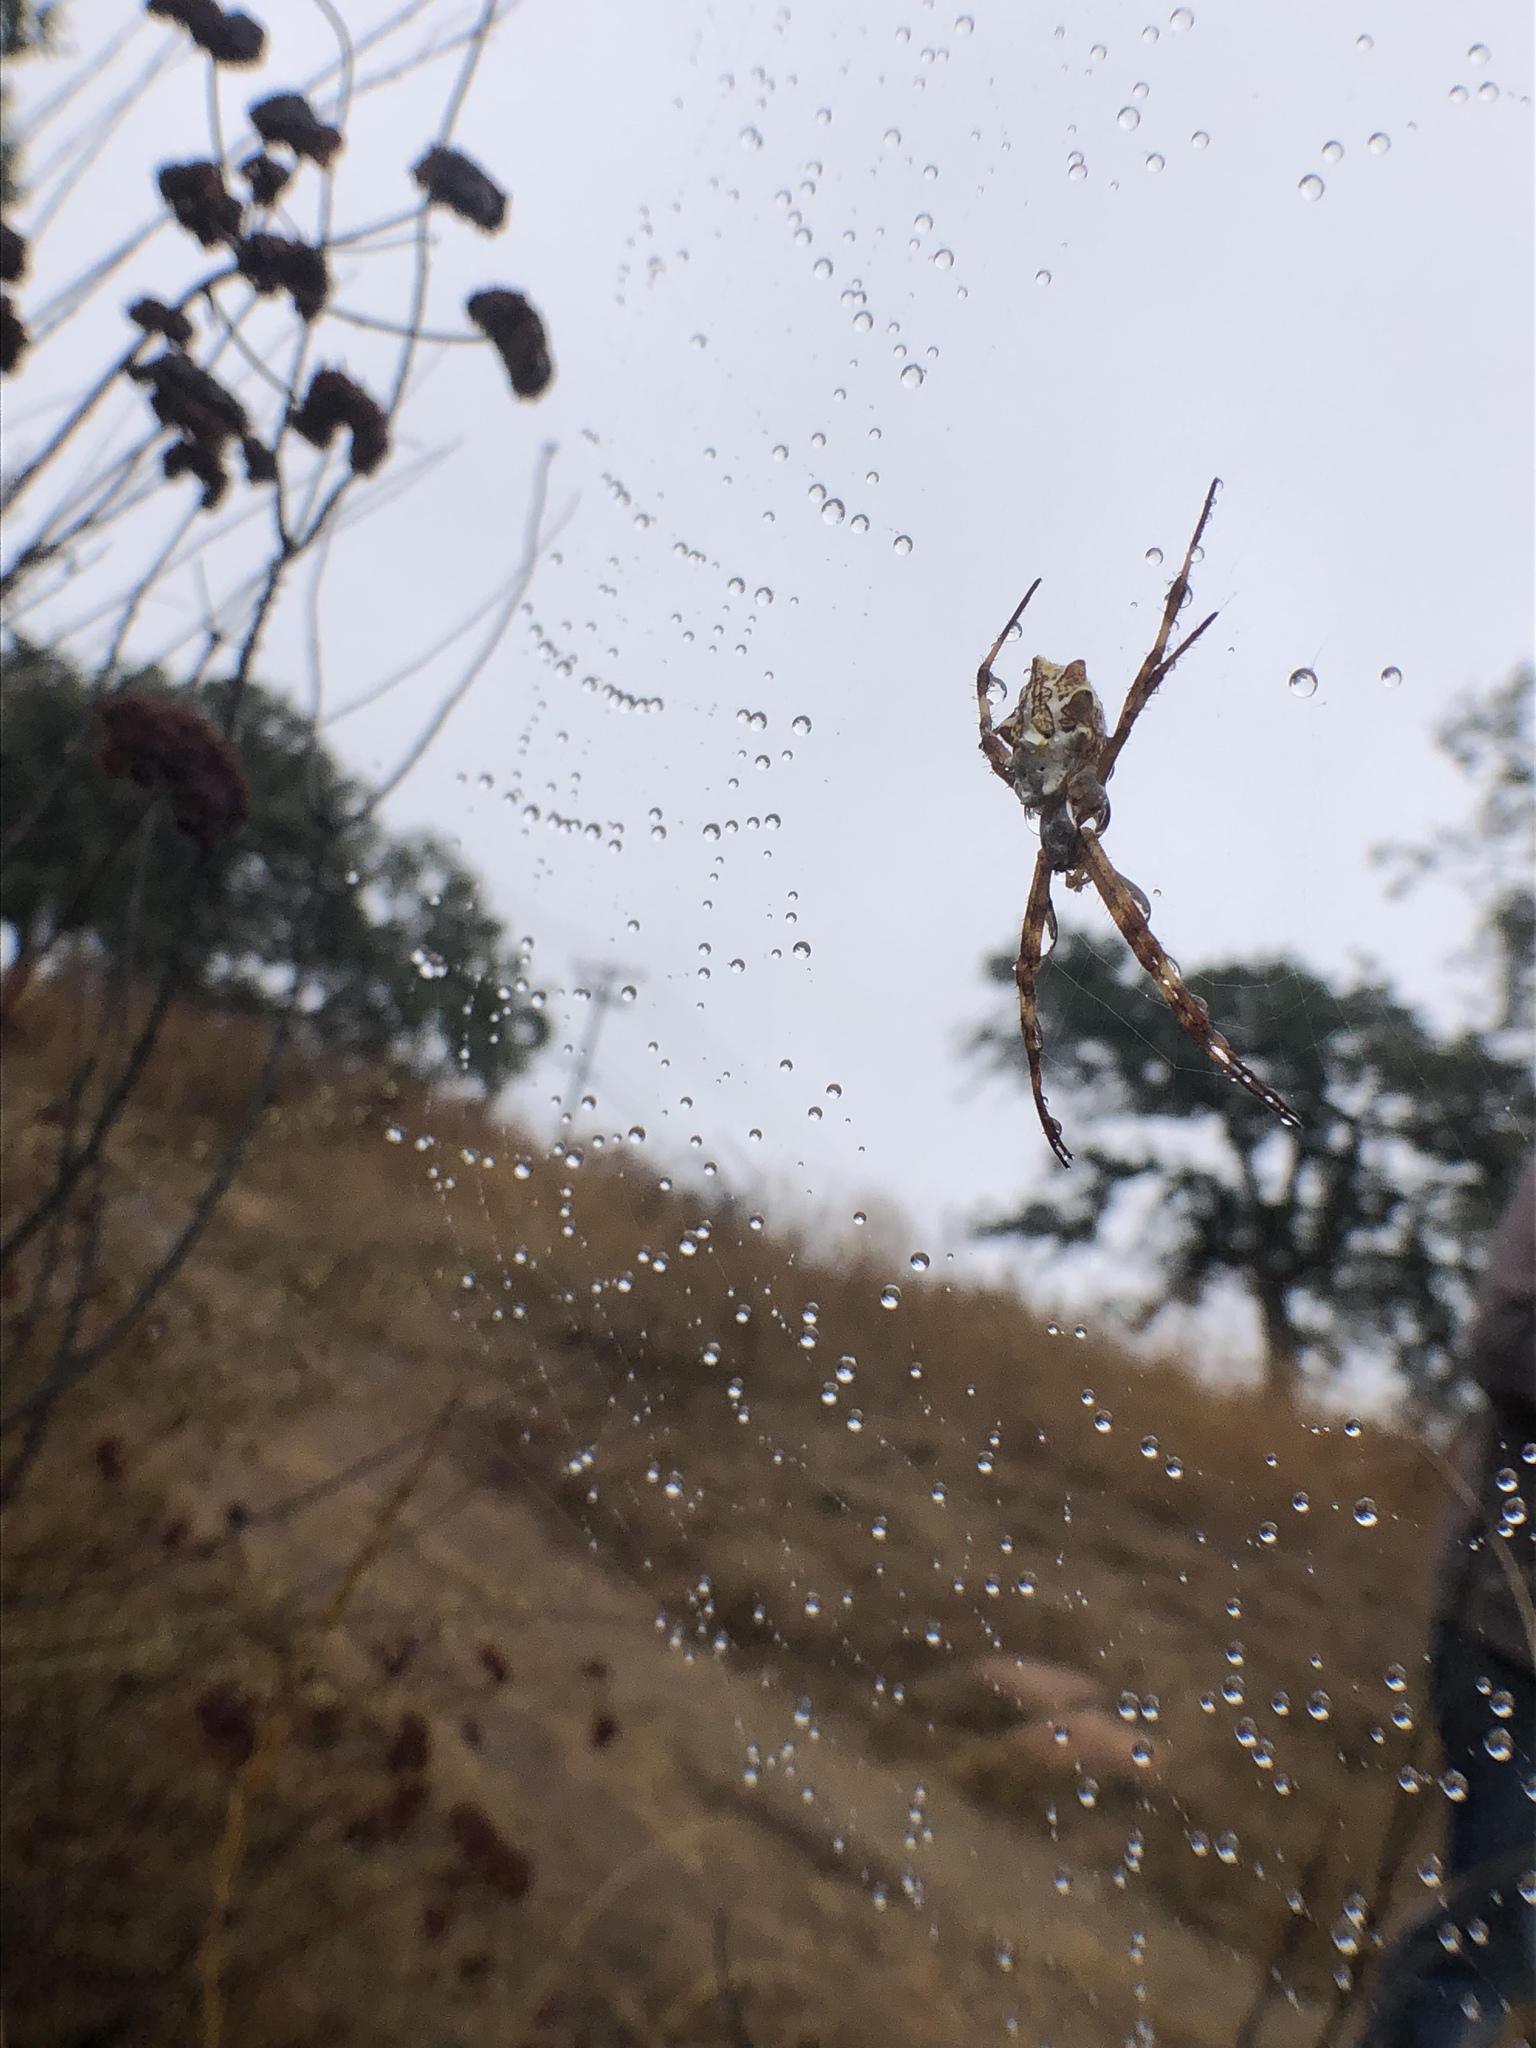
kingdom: Animalia
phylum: Arthropoda
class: Arachnida
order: Araneae
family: Araneidae
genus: Argiope
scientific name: Argiope argentata
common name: Orb weavers
